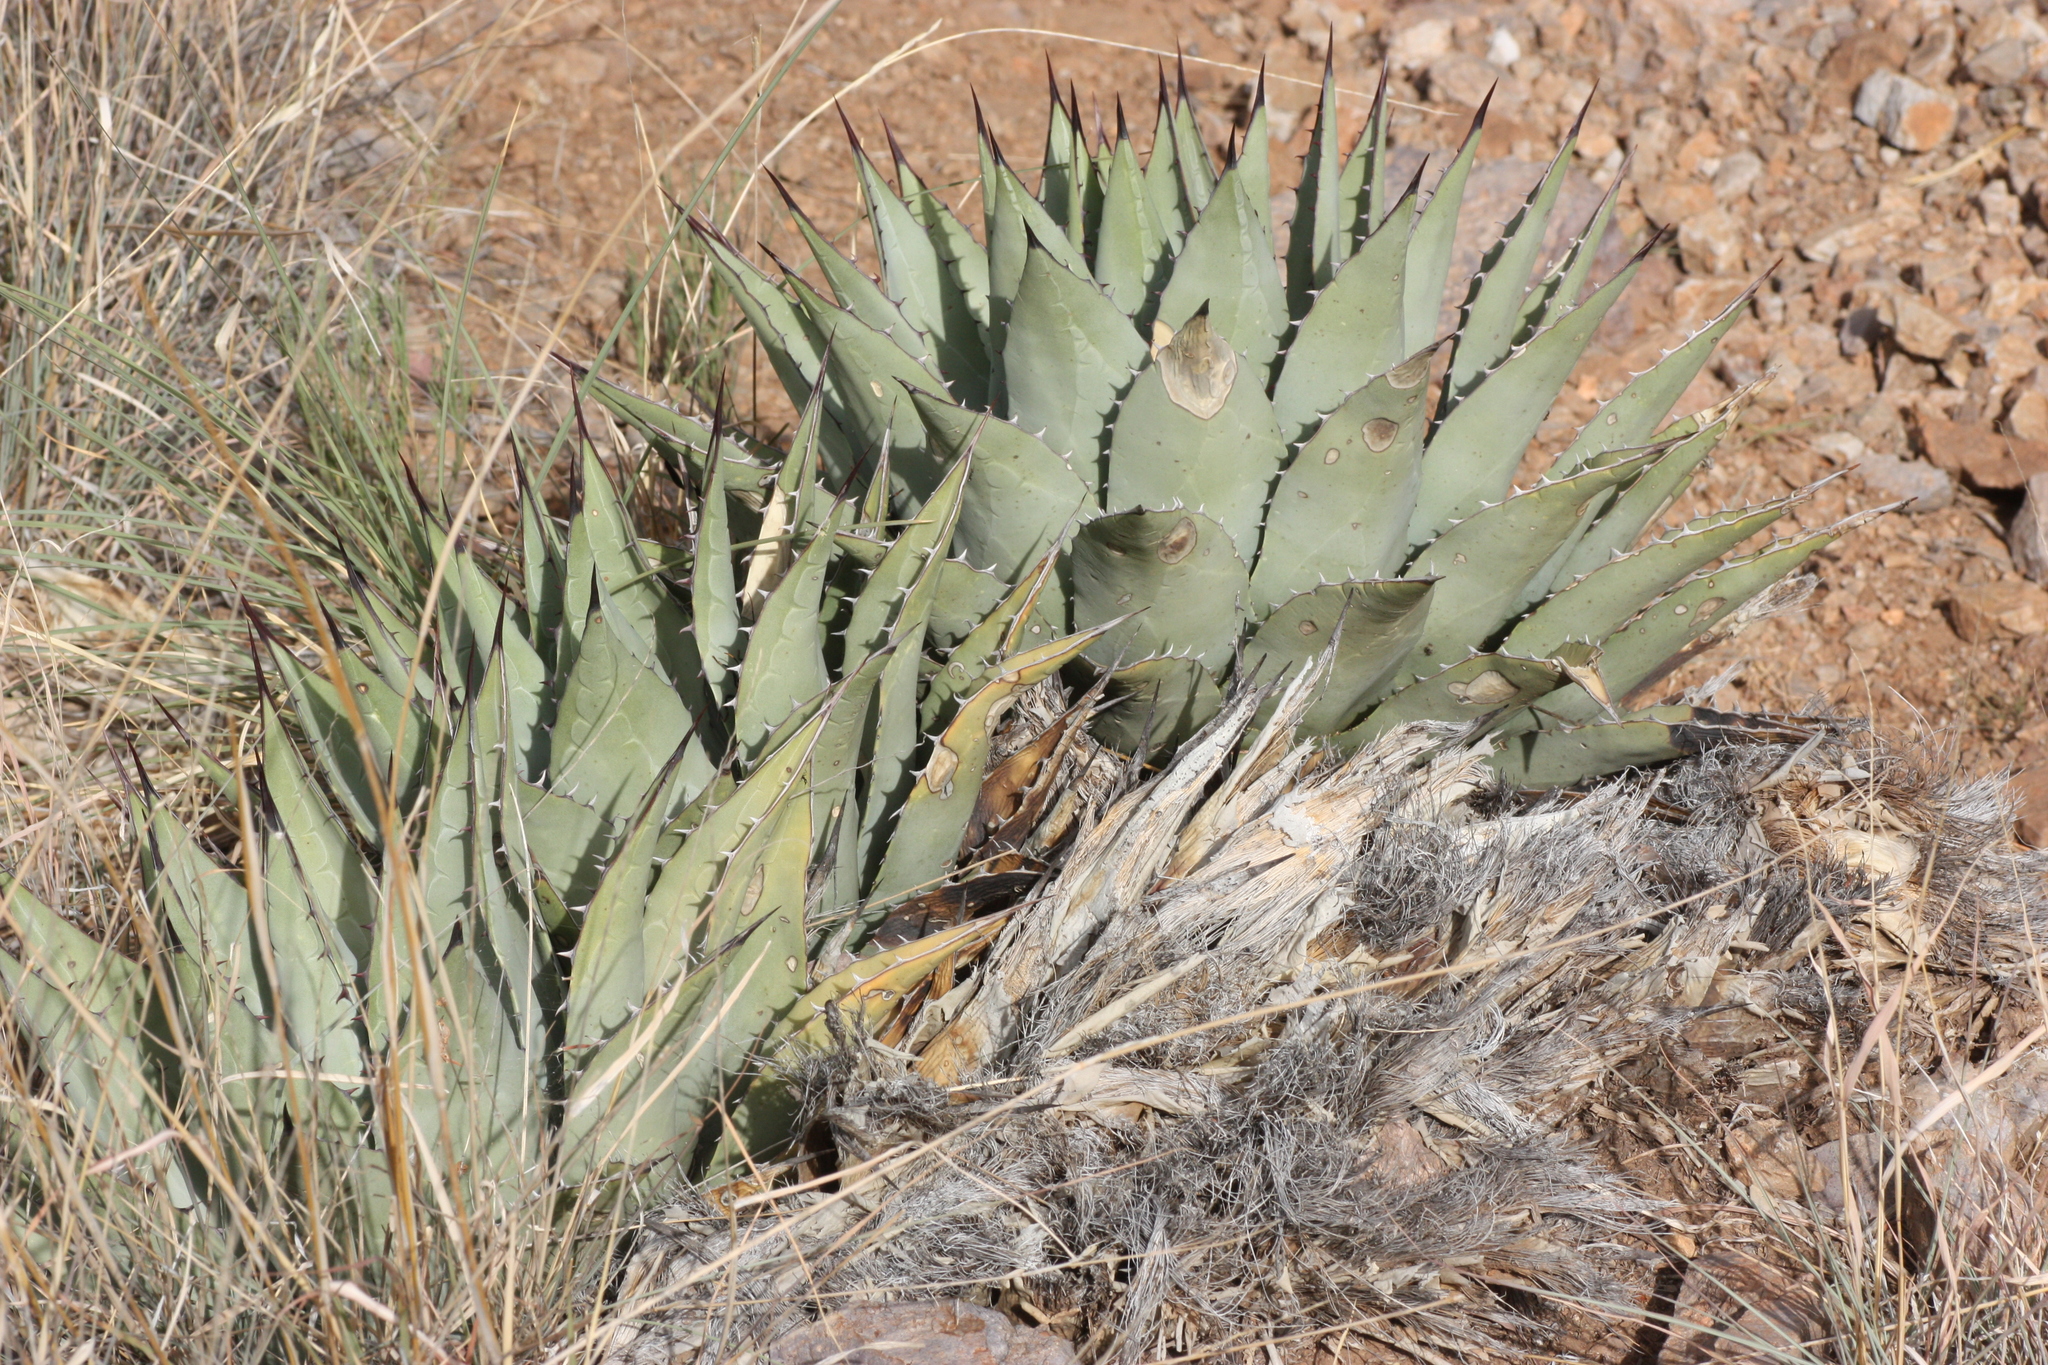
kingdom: Plantae
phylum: Tracheophyta
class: Liliopsida
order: Asparagales
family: Asparagaceae
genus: Agave
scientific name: Agave parryi
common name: Parry's agave
